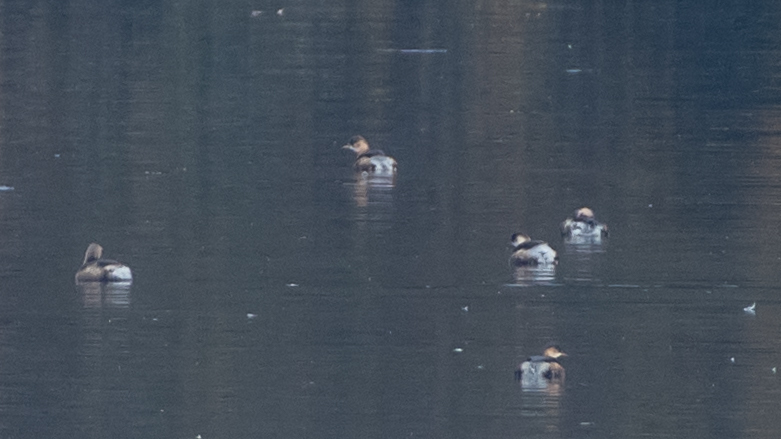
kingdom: Animalia
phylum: Chordata
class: Aves
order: Podicipediformes
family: Podicipedidae
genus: Tachybaptus
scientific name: Tachybaptus ruficollis
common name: Little grebe
